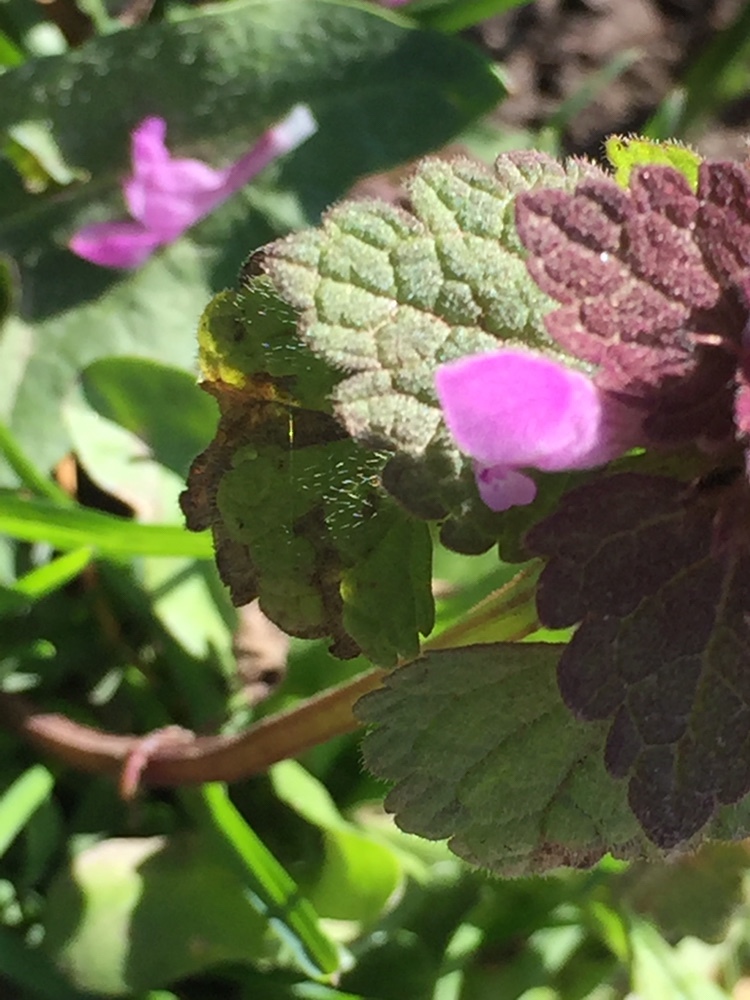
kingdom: Plantae
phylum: Tracheophyta
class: Magnoliopsida
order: Lamiales
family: Lamiaceae
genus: Lamium
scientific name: Lamium purpureum
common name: Red dead-nettle
